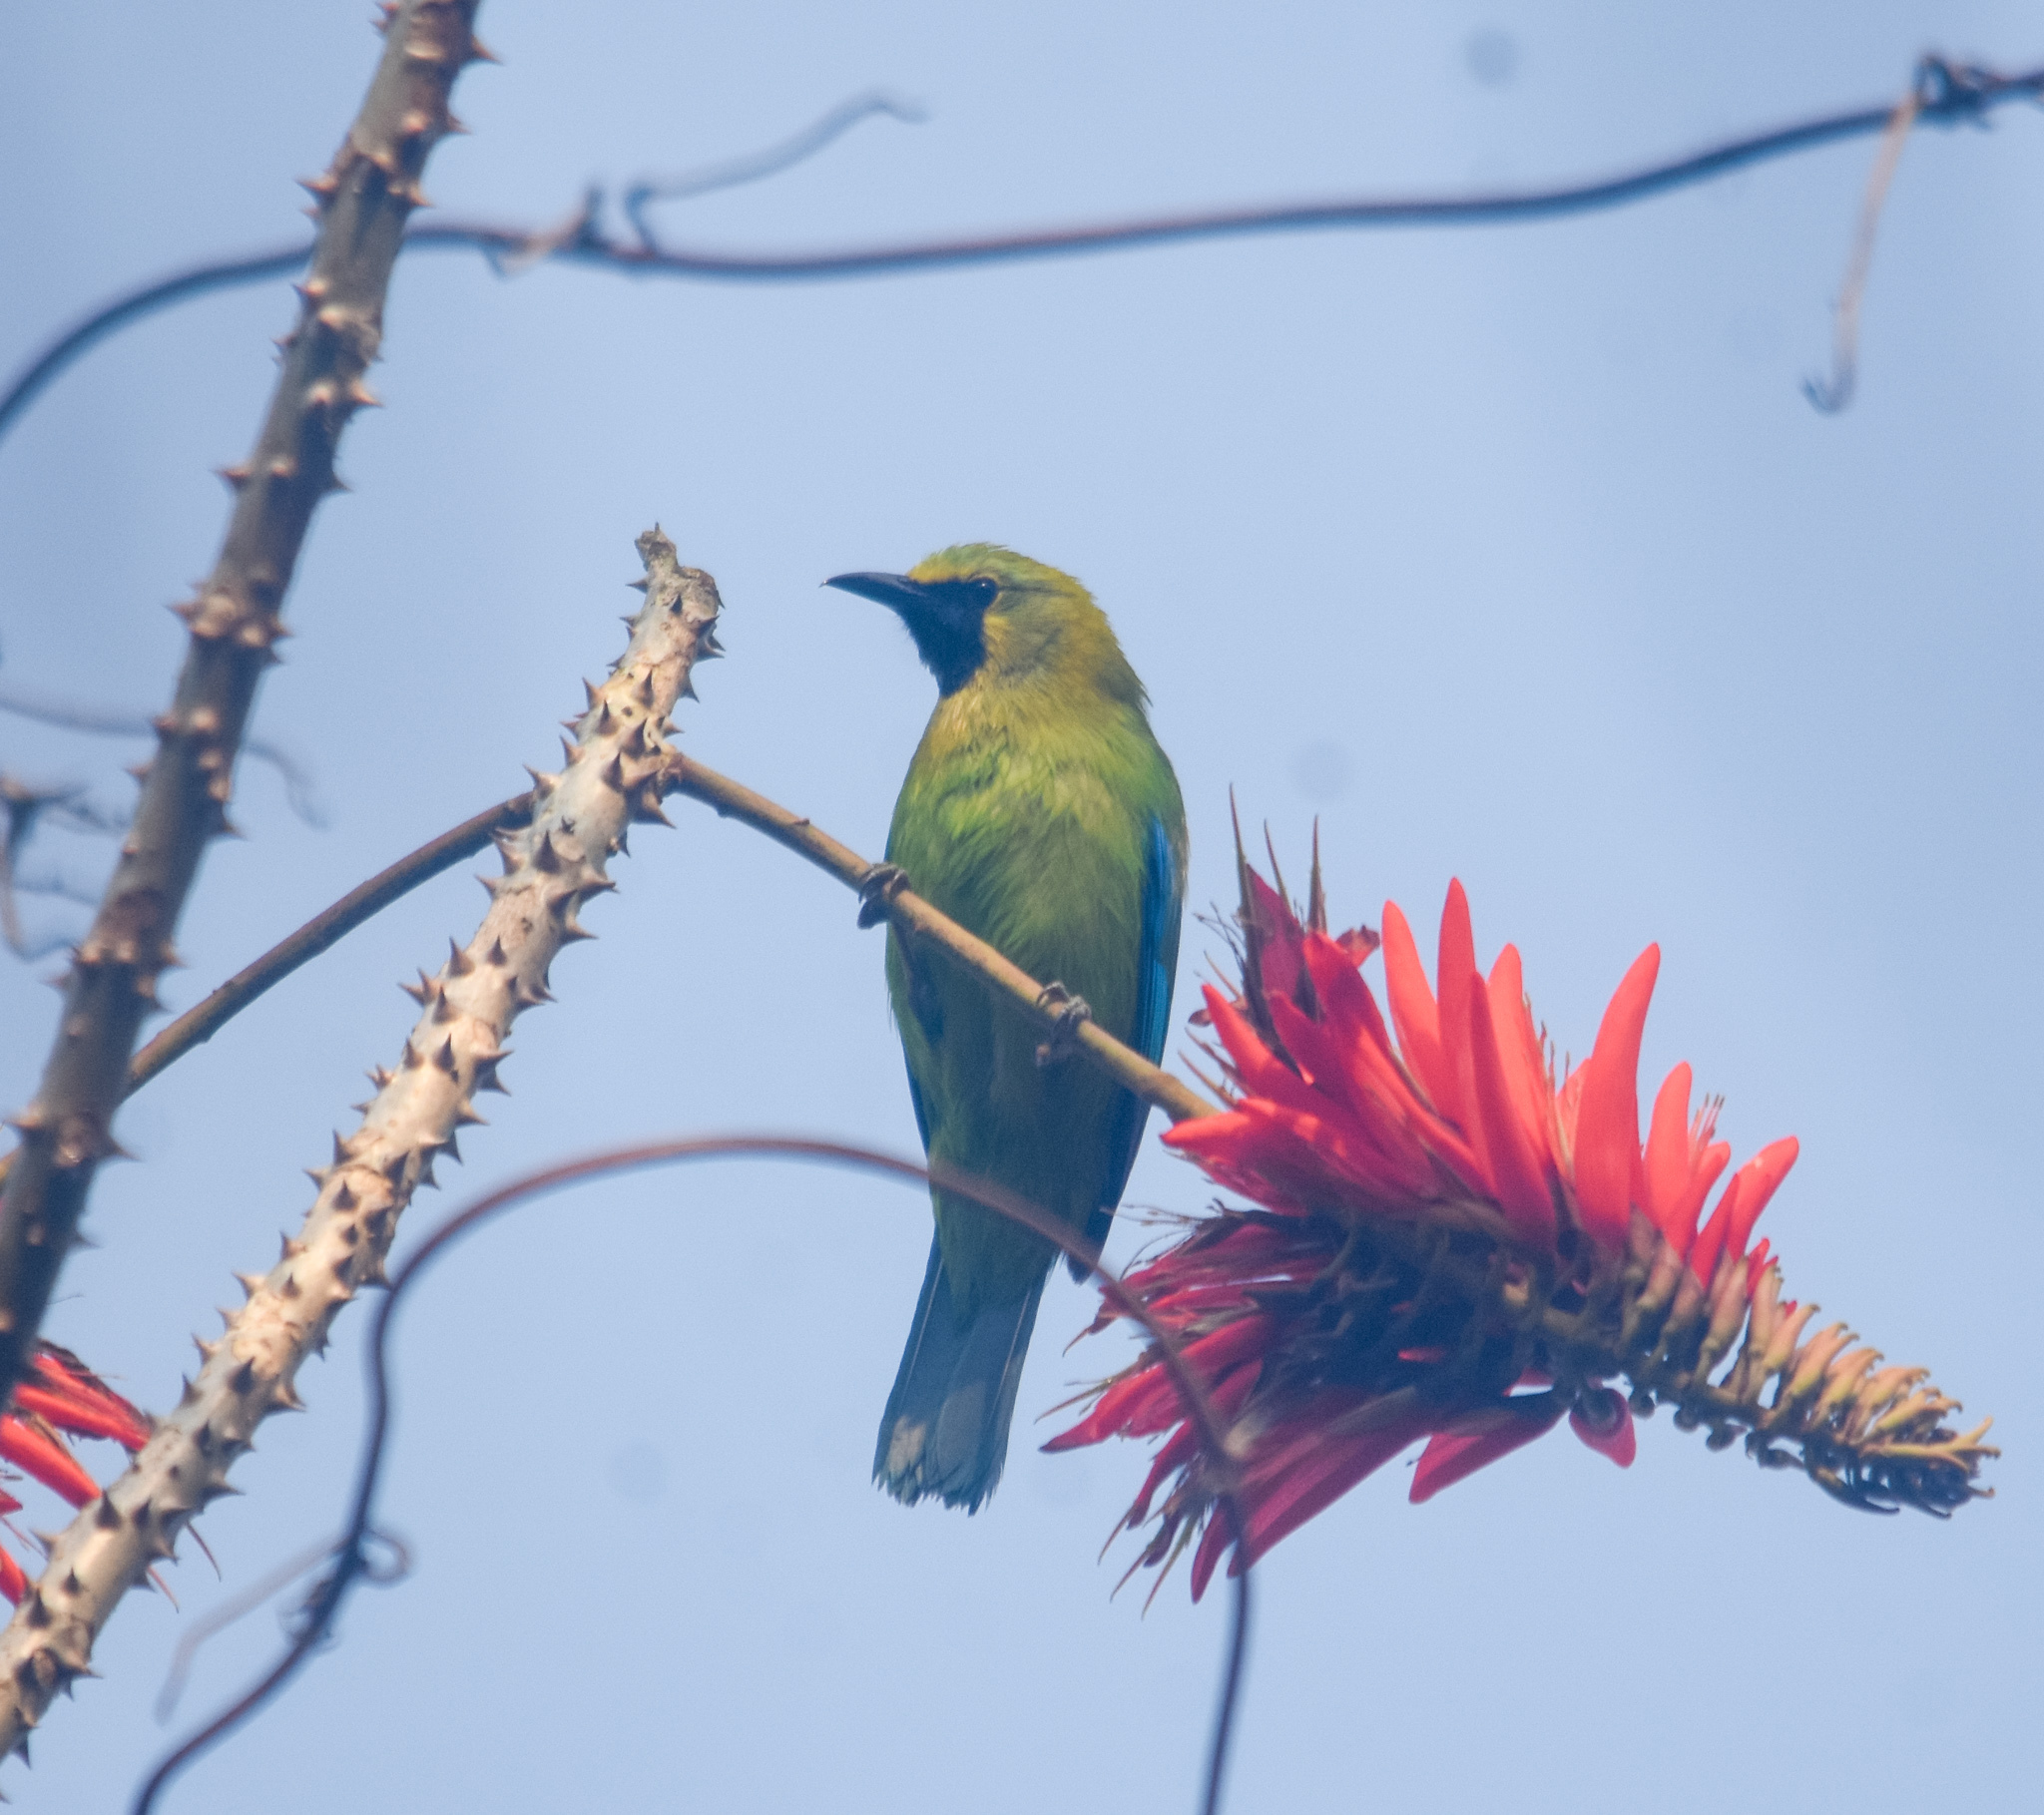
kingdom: Animalia
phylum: Chordata
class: Aves
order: Passeriformes
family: Chloropseidae
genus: Chloropsis
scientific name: Chloropsis moluccensis
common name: Blue-winged leafbird
